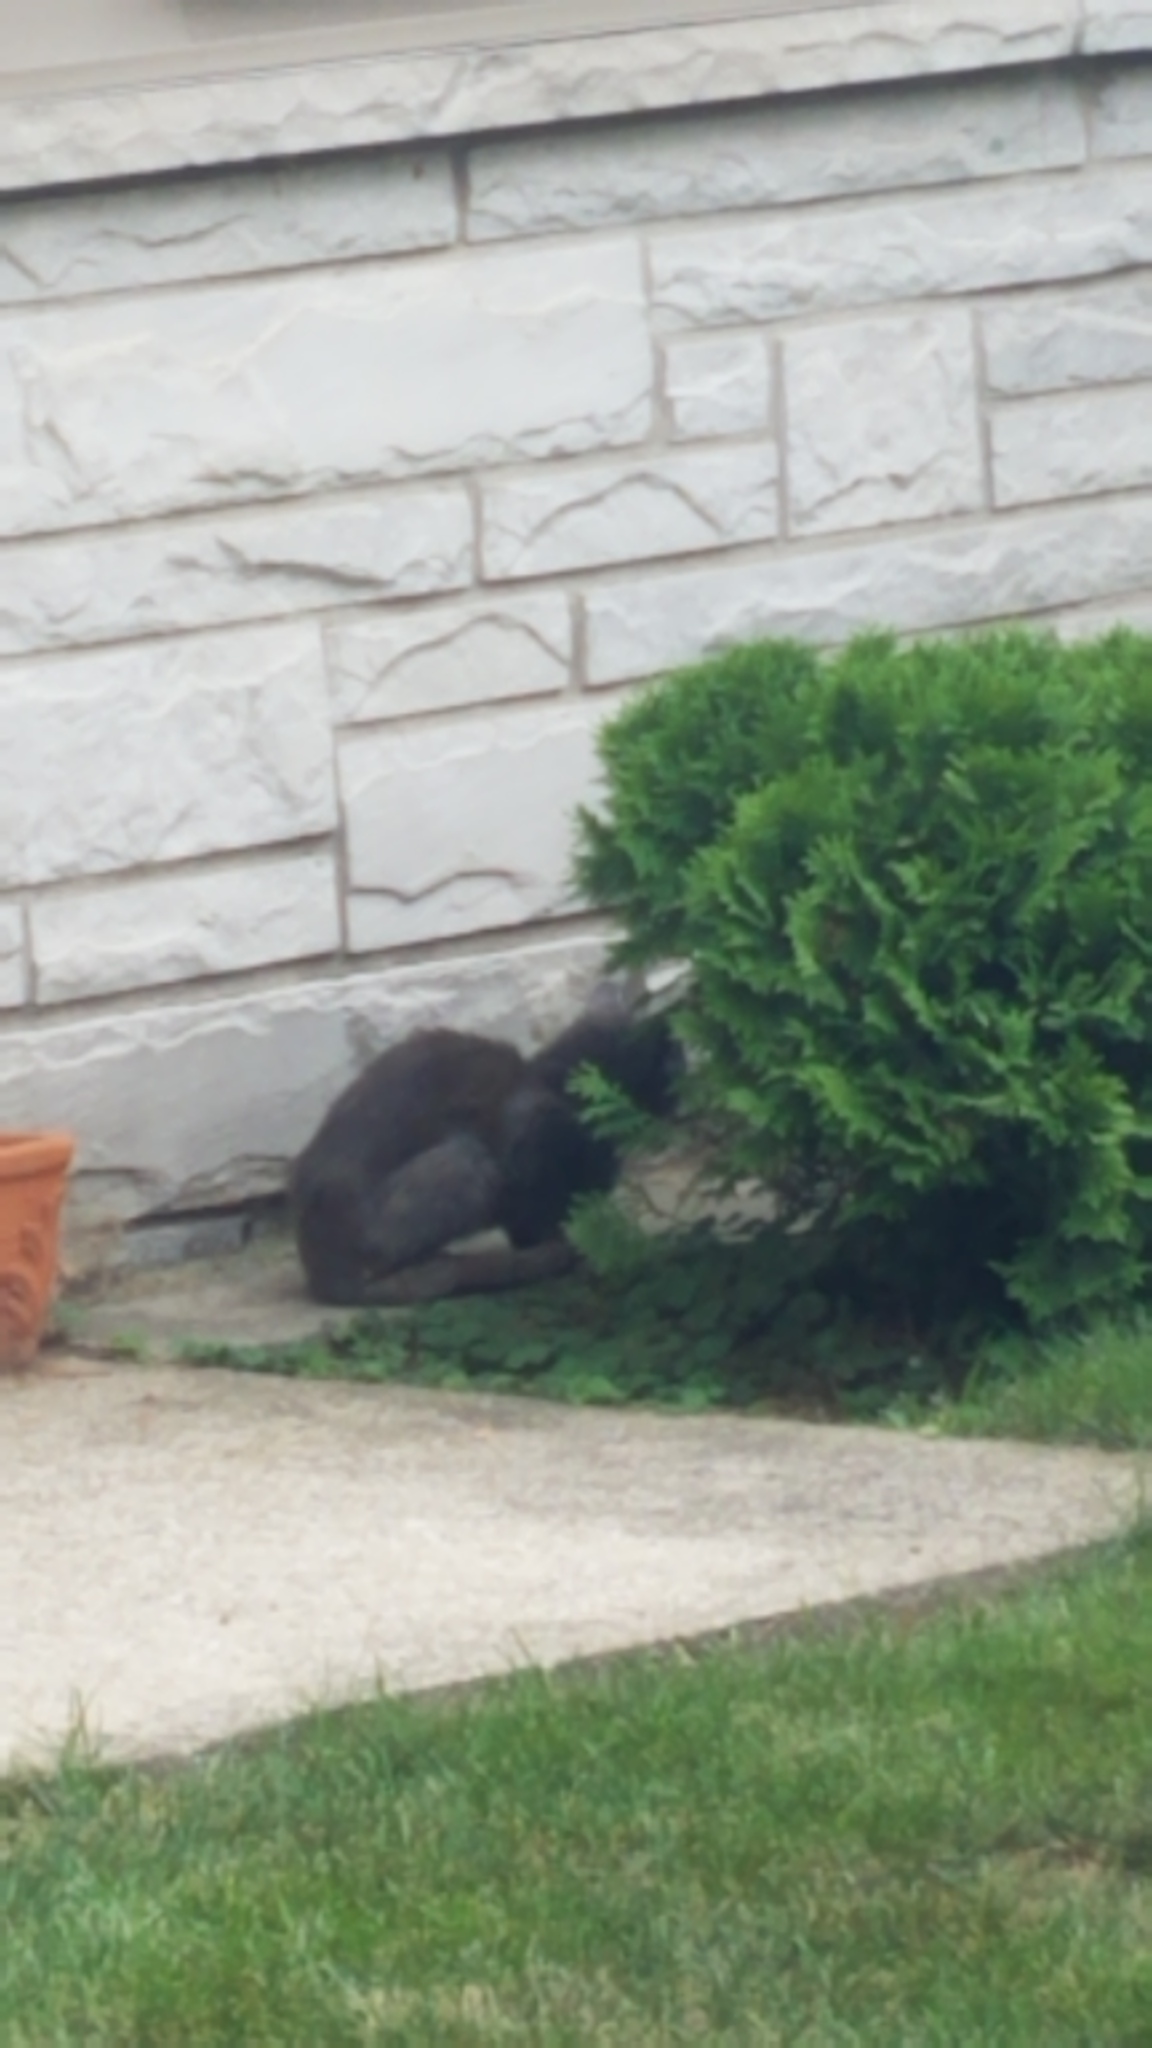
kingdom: Animalia
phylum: Chordata
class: Mammalia
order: Carnivora
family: Felidae
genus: Felis
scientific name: Felis catus
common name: Domestic cat
